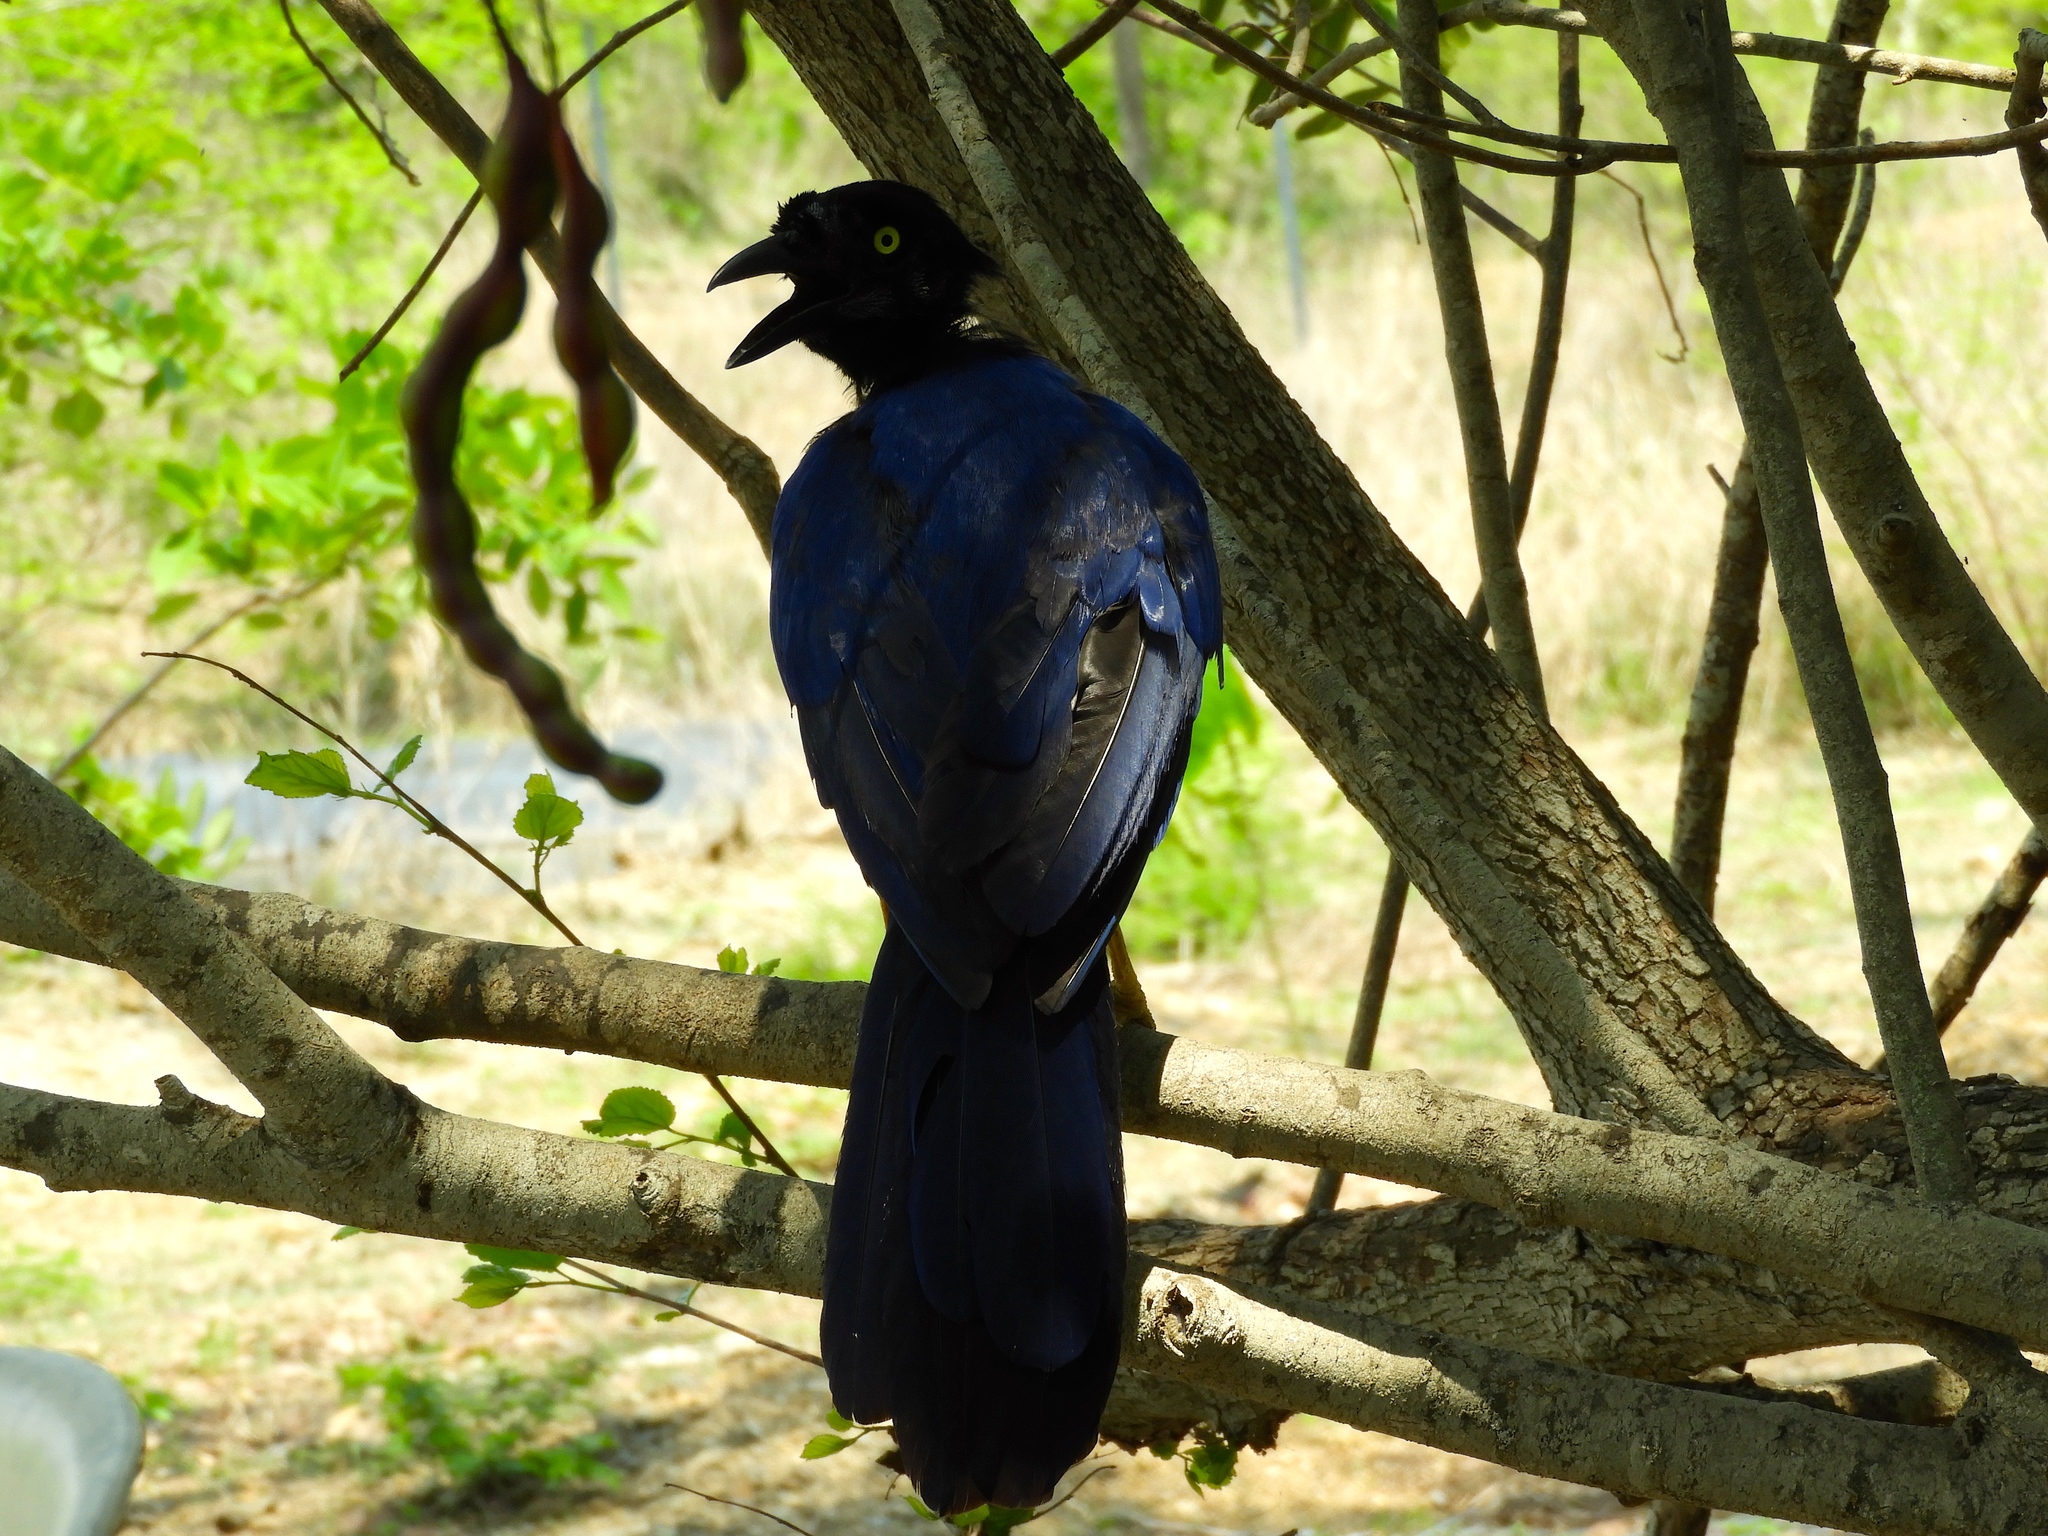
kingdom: Animalia
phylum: Chordata
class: Aves
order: Passeriformes
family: Corvidae
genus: Cyanocorax
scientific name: Cyanocorax beecheii
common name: Purplish-backed jay
